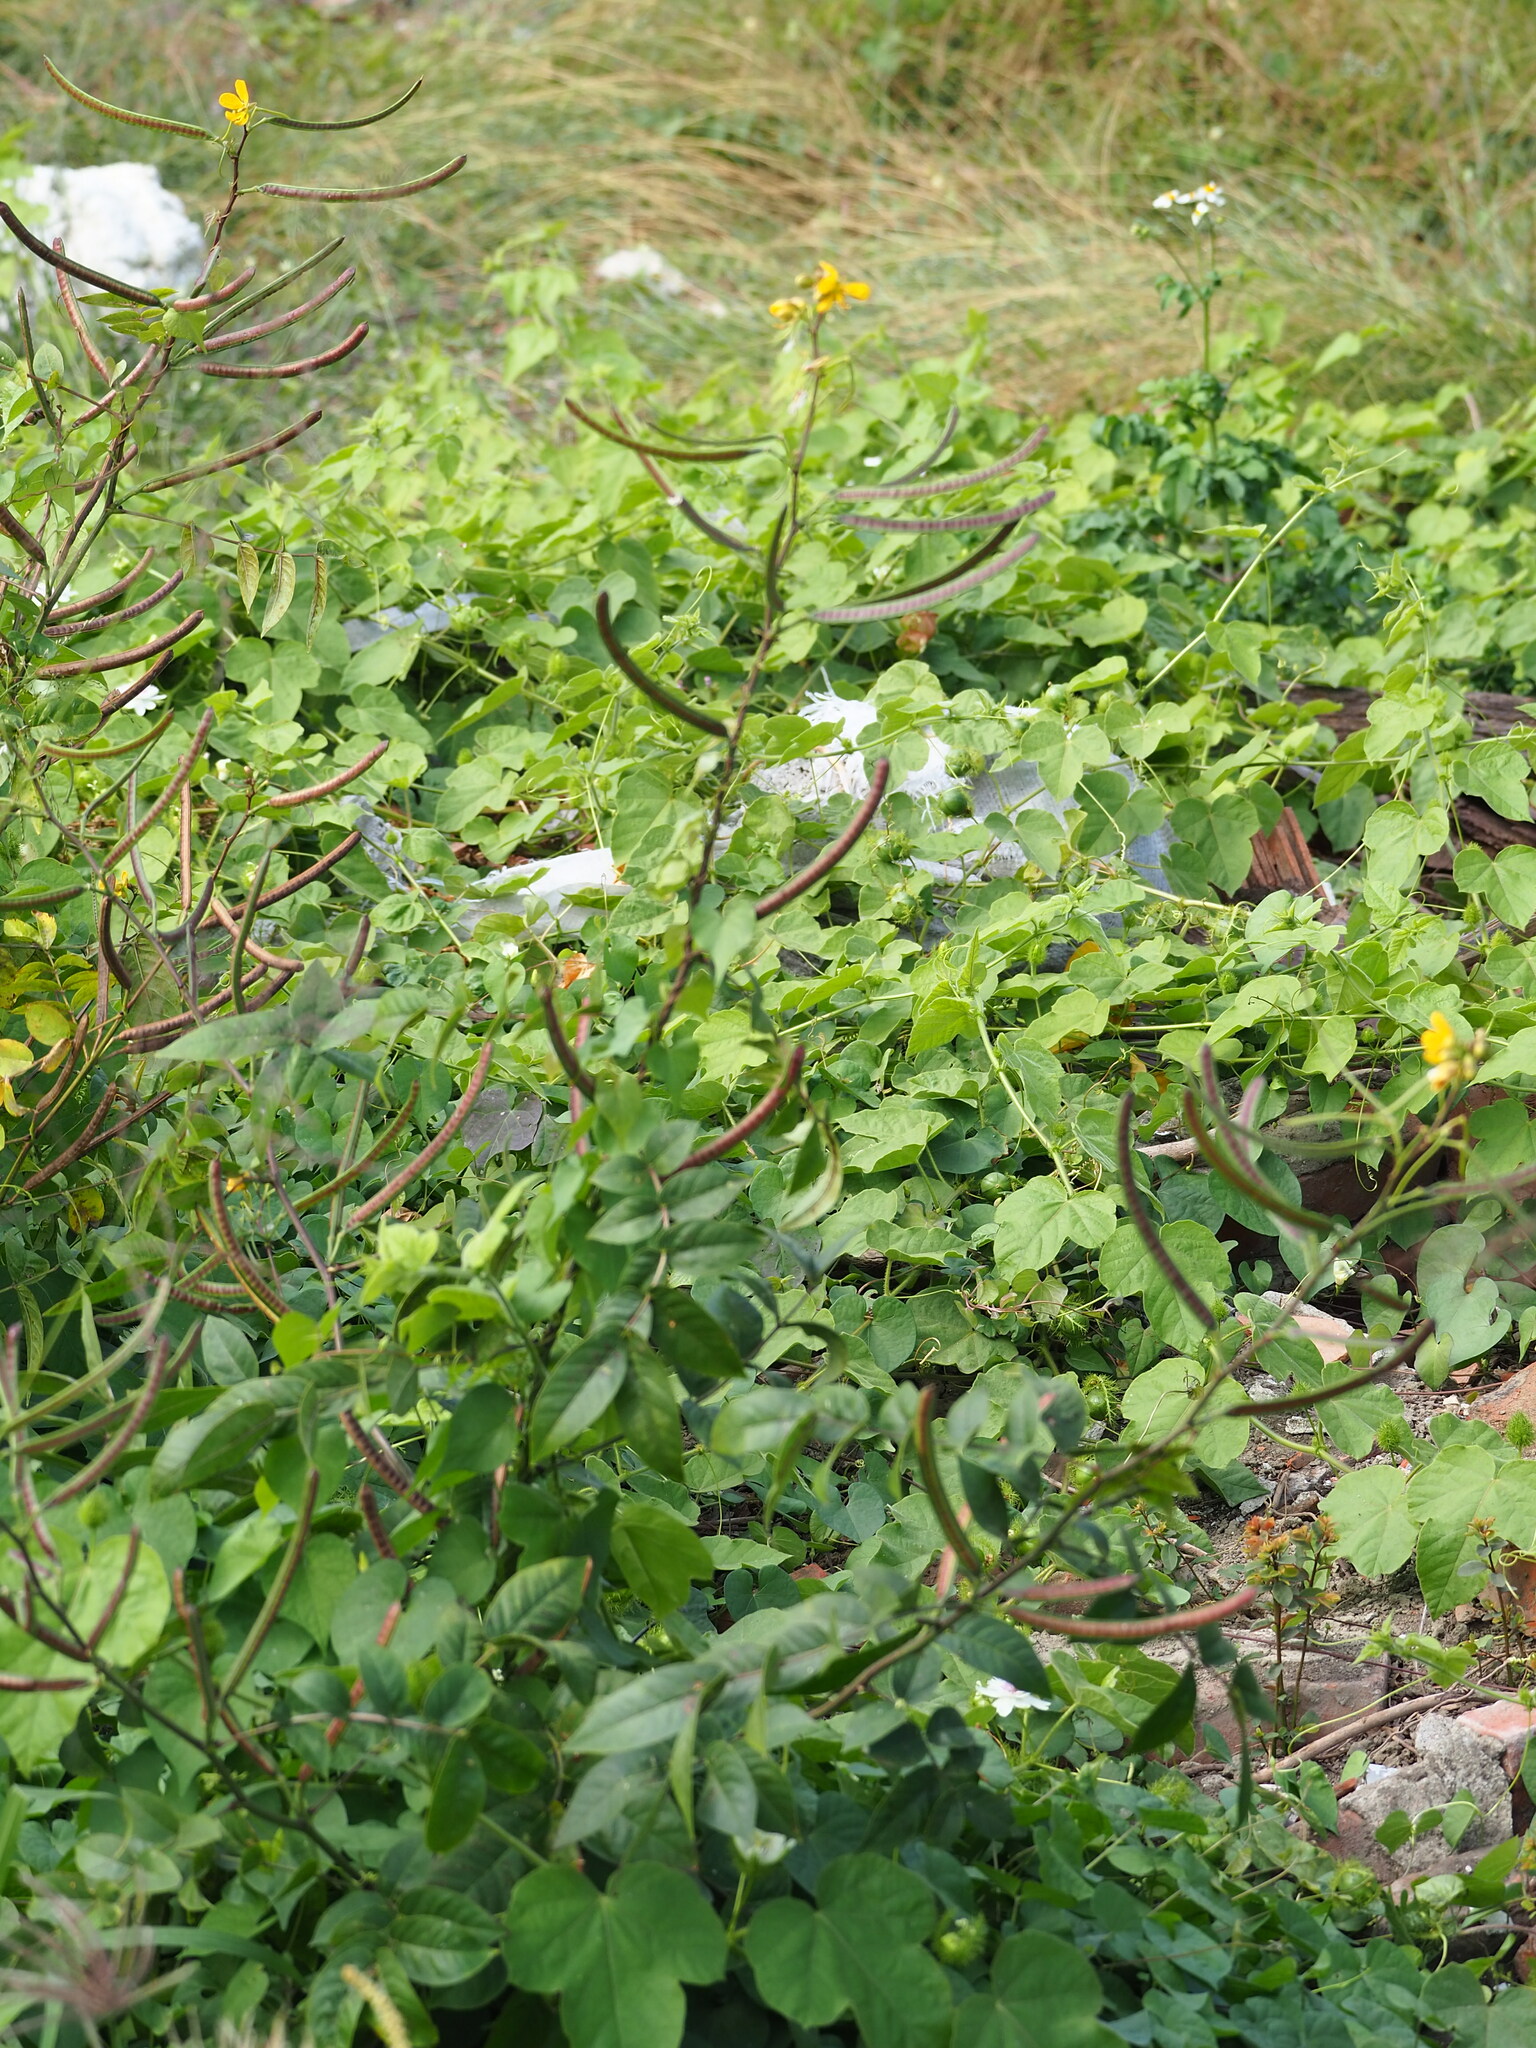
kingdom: Plantae
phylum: Tracheophyta
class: Magnoliopsida
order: Fabales
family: Fabaceae
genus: Senna
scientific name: Senna occidentalis
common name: Septicweed
